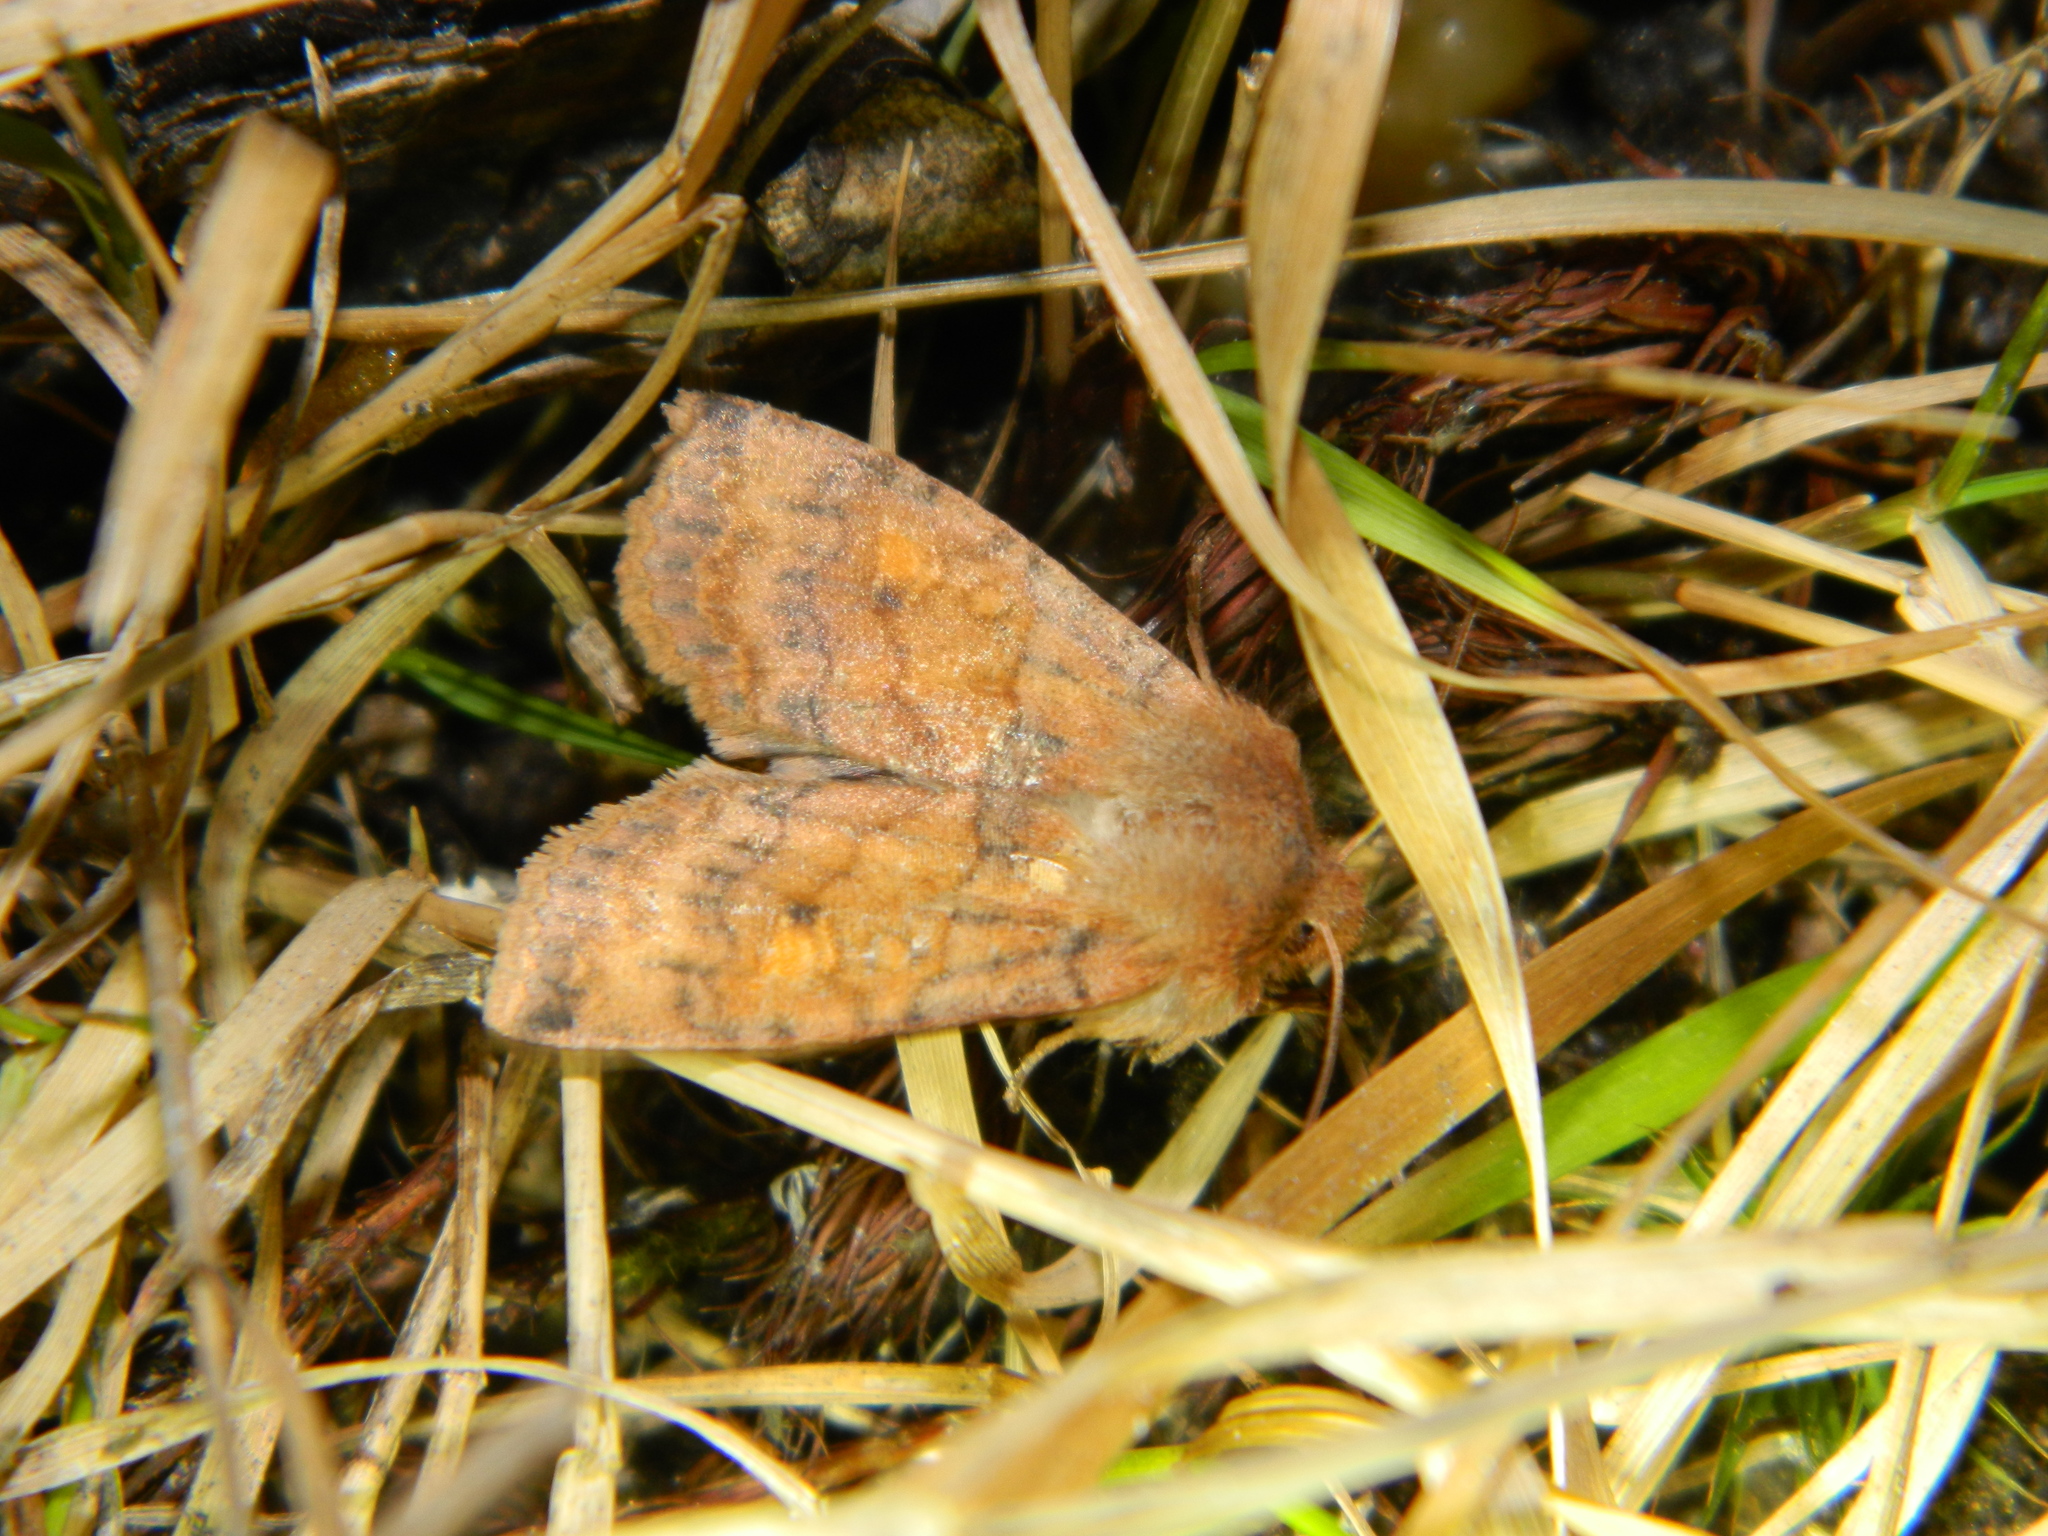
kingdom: Animalia
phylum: Arthropoda
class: Insecta
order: Lepidoptera
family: Noctuidae
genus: Eupsilia
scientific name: Eupsilia tristigmata
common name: Three-spotted sallow
